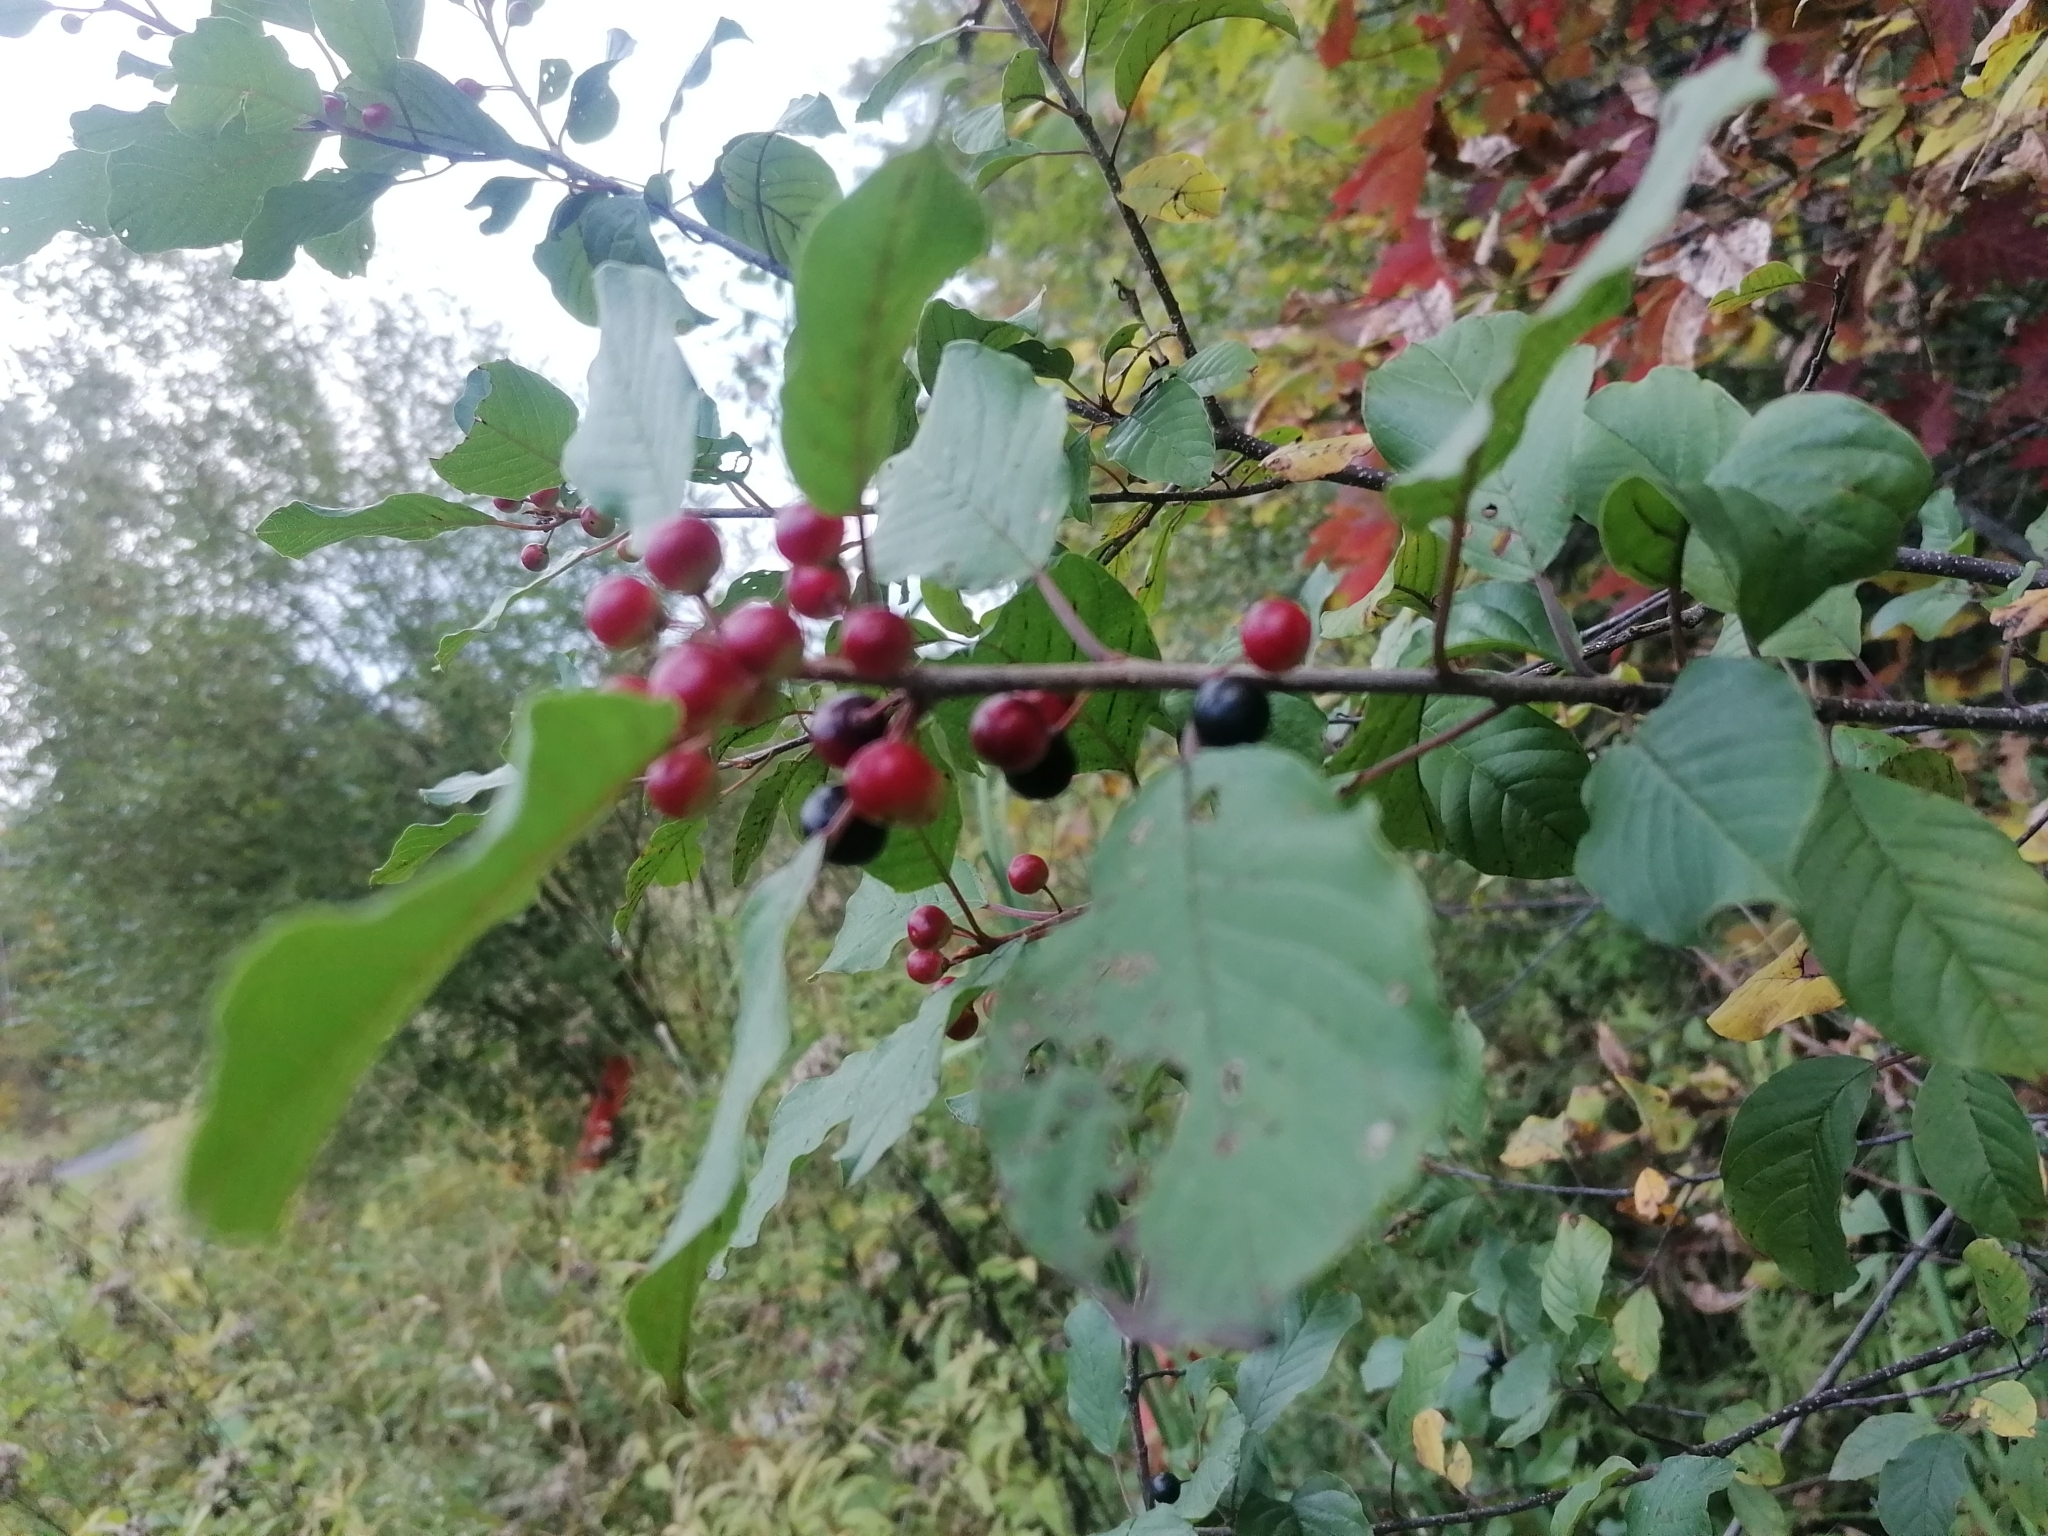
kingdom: Plantae
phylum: Tracheophyta
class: Magnoliopsida
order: Rosales
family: Rhamnaceae
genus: Frangula
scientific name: Frangula alnus
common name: Alder buckthorn
